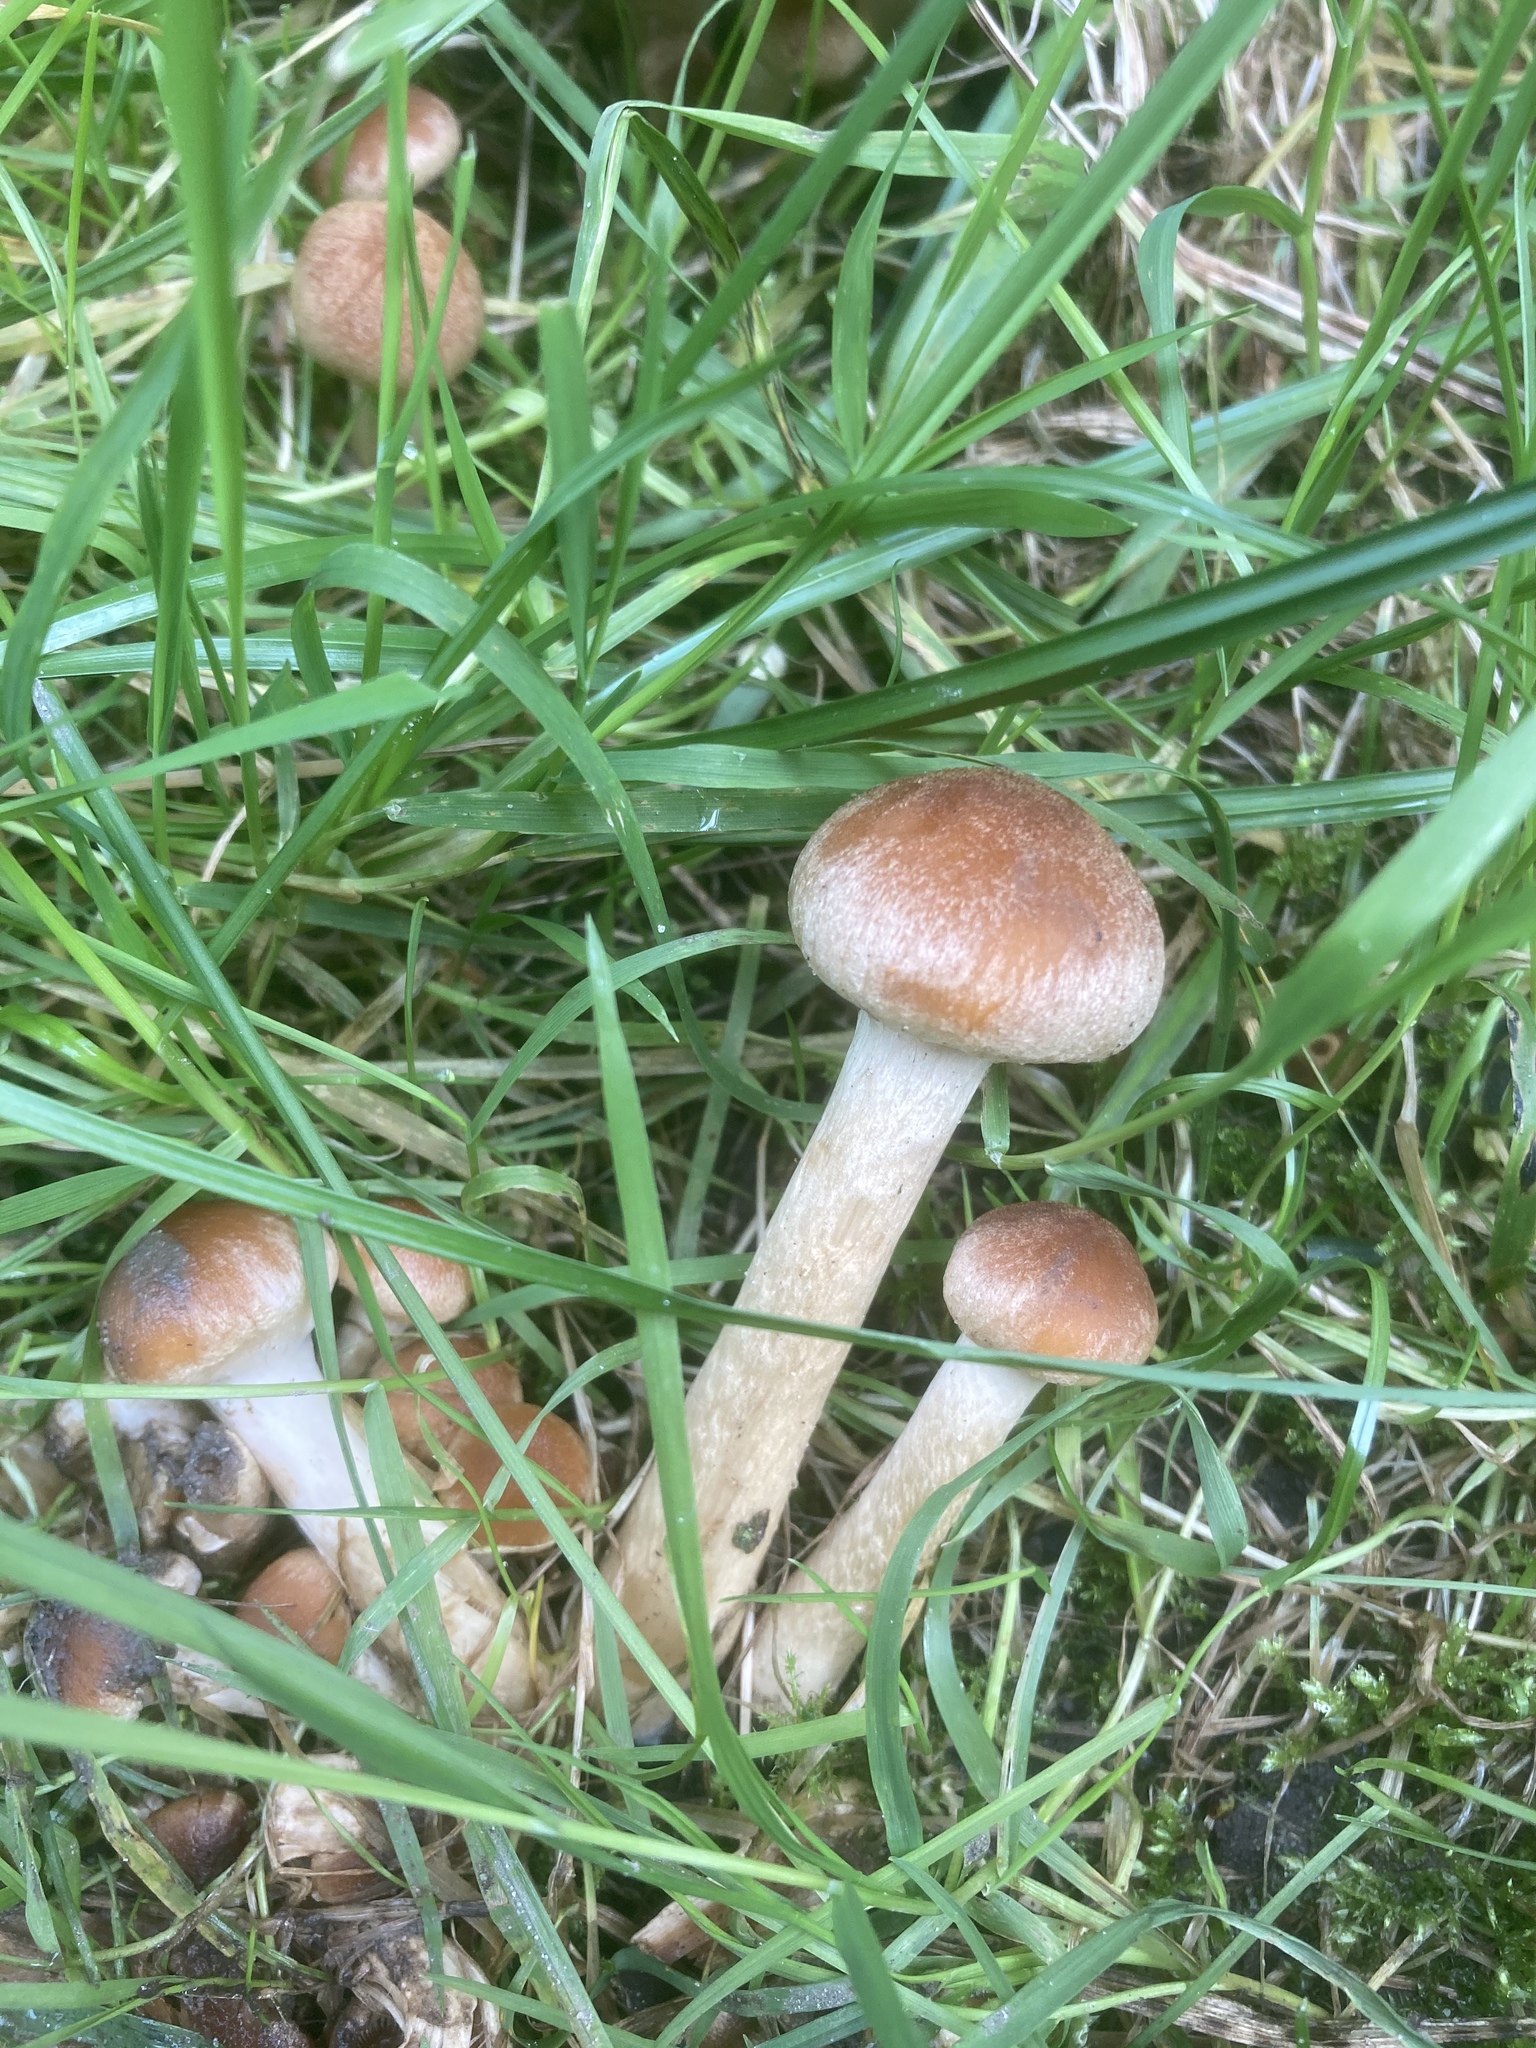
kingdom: Fungi
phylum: Basidiomycota
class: Agaricomycetes
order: Agaricales
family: Psathyrellaceae
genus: Lacrymaria
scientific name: Lacrymaria lacrymabunda
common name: Weeping widow
